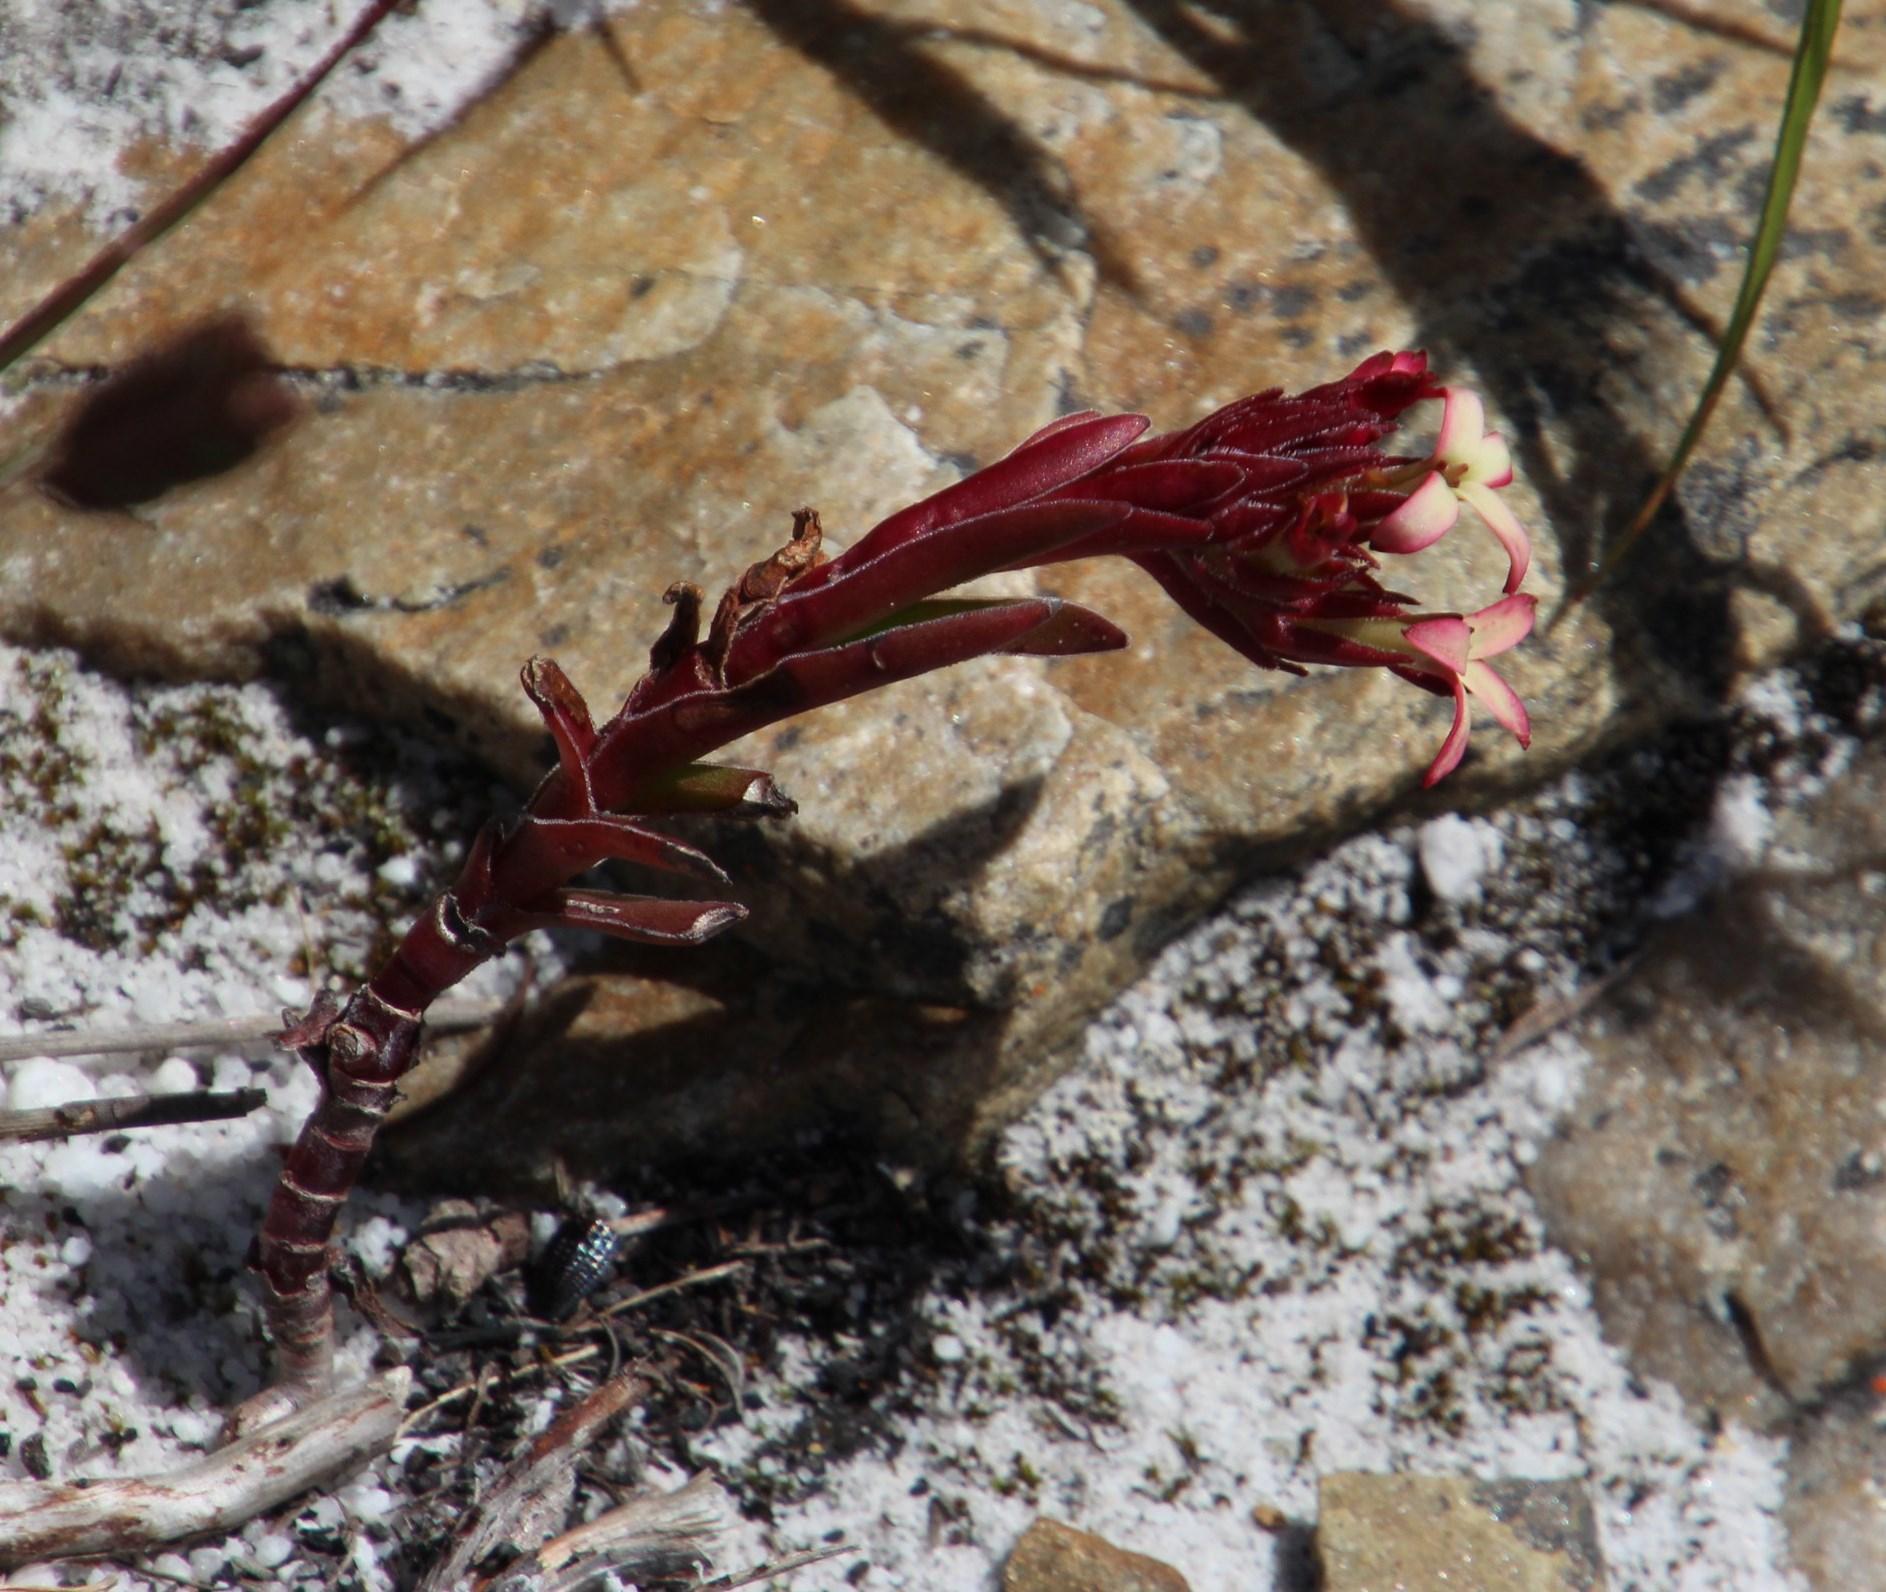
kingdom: Plantae
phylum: Tracheophyta
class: Magnoliopsida
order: Saxifragales
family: Crassulaceae
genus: Crassula
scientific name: Crassula fascicularis
